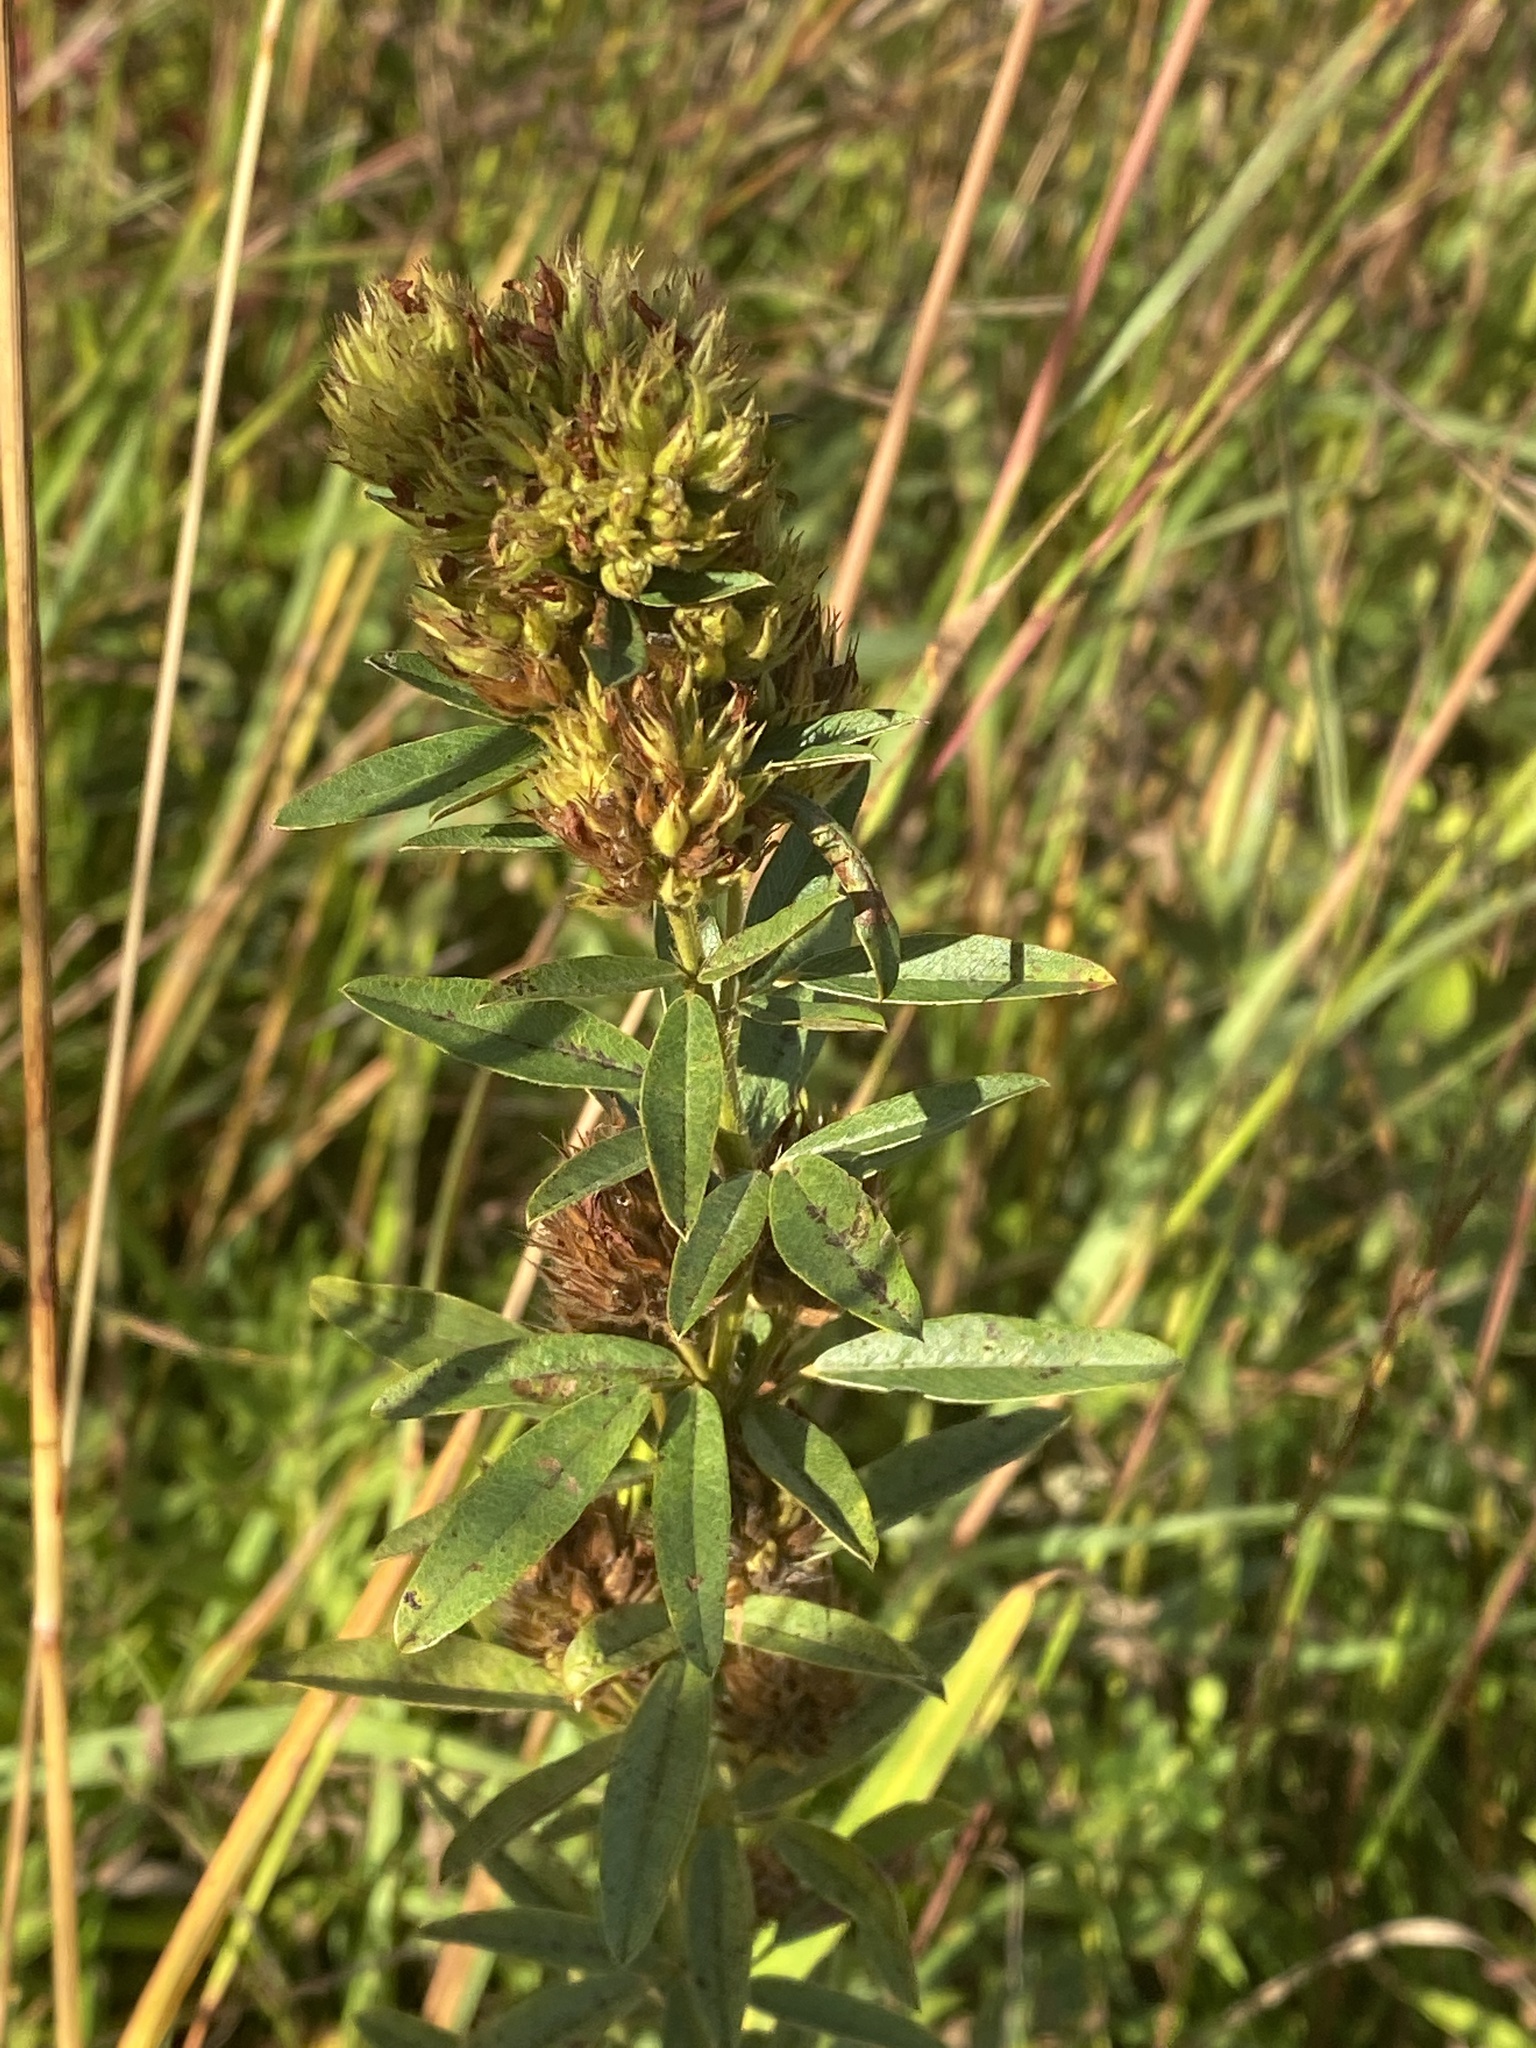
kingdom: Plantae
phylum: Tracheophyta
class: Magnoliopsida
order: Fabales
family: Fabaceae
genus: Lespedeza
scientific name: Lespedeza capitata
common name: Dusty clover
